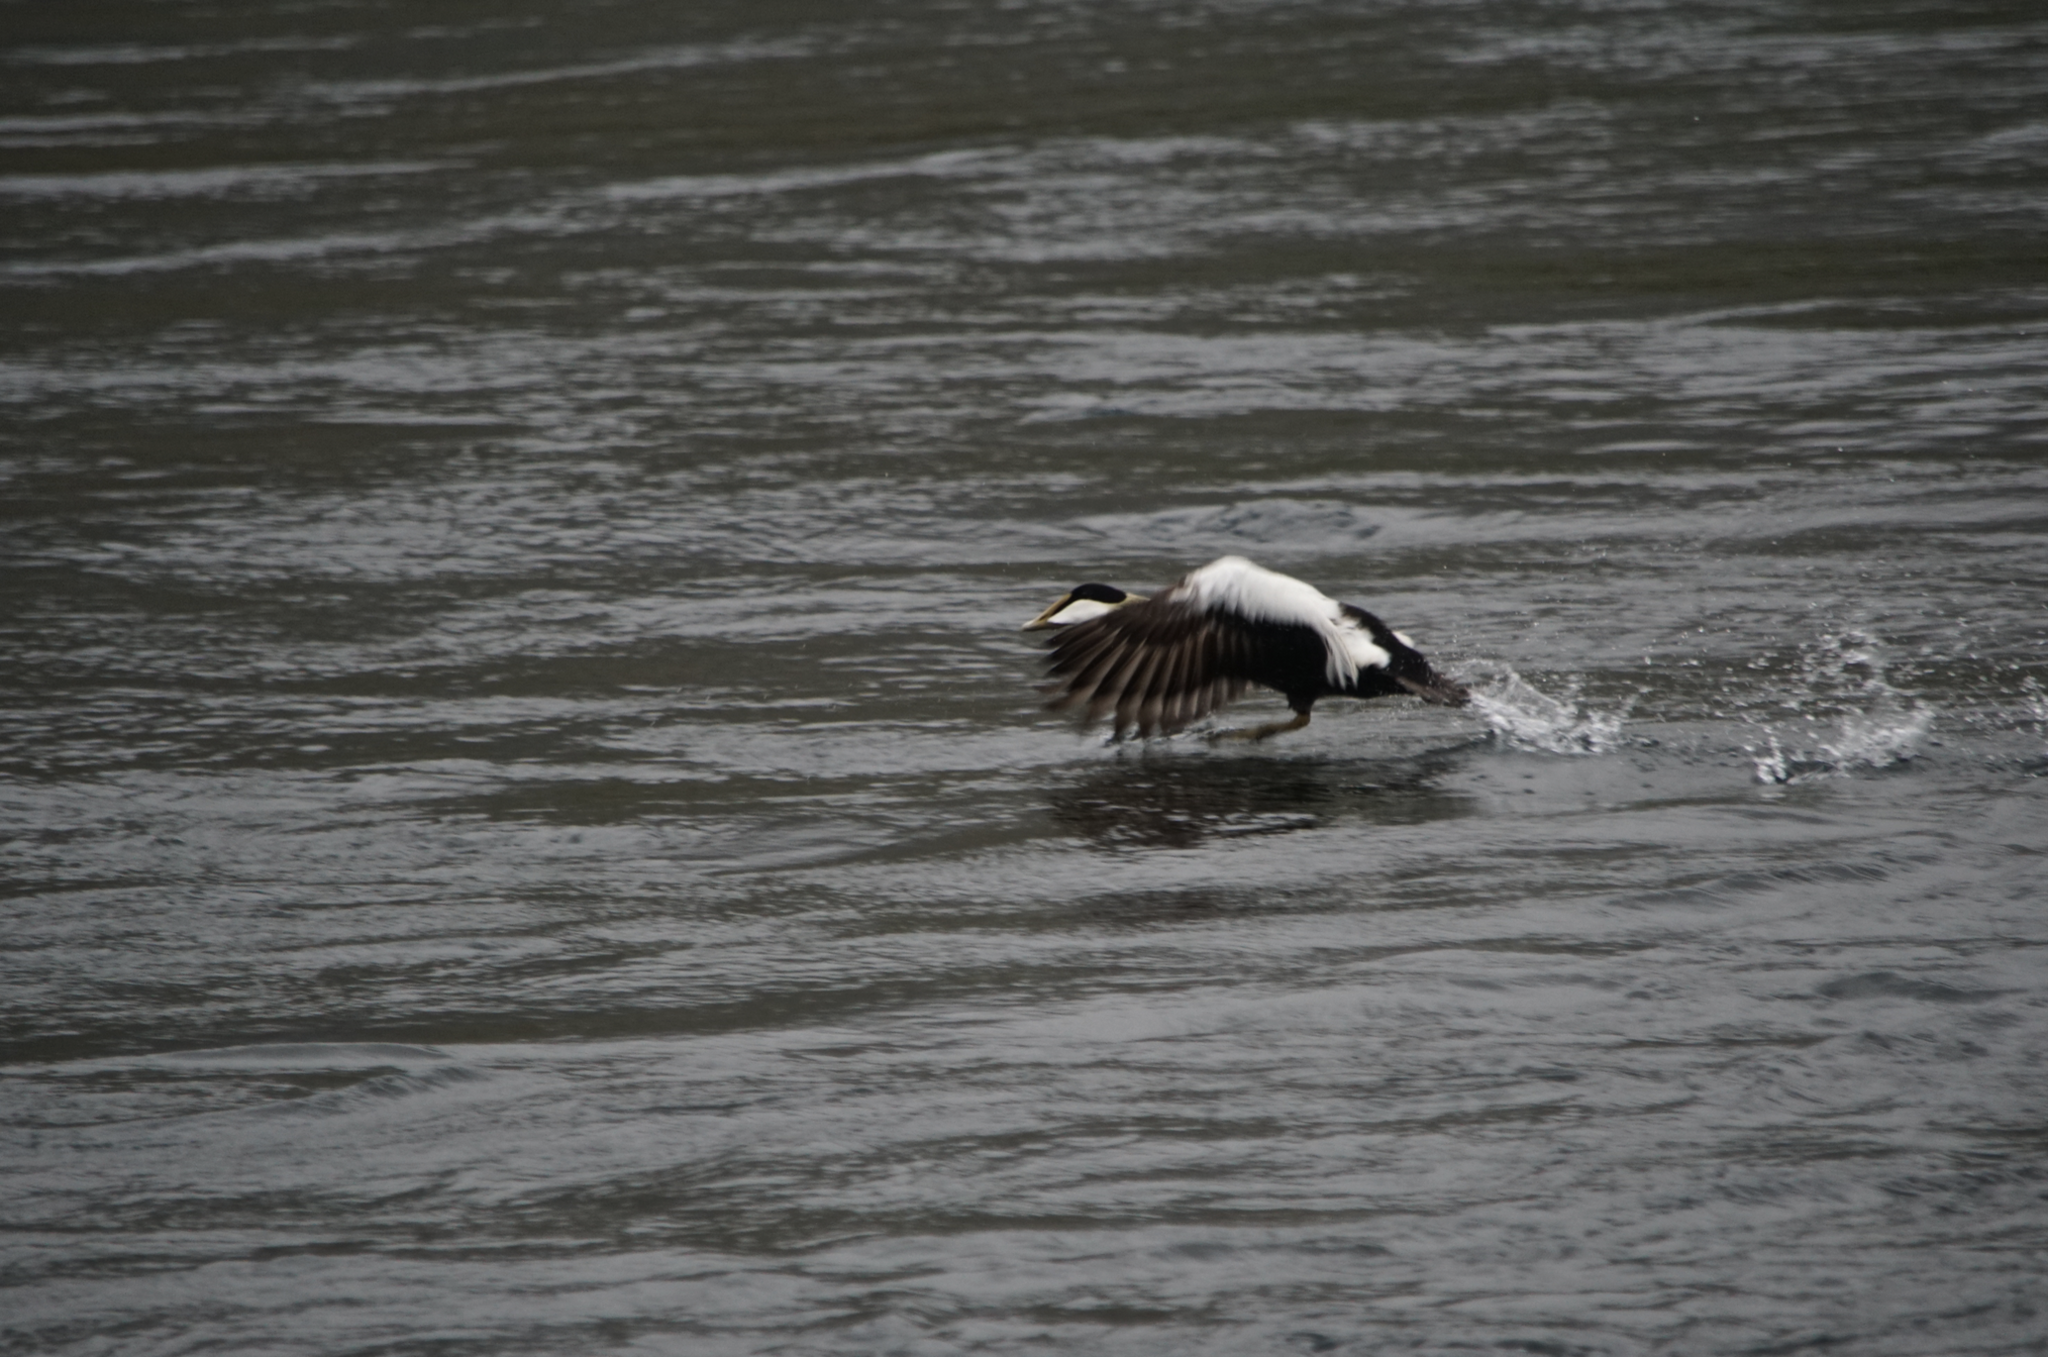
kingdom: Animalia
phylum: Chordata
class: Aves
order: Anseriformes
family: Anatidae
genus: Somateria
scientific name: Somateria mollissima
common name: Common eider
